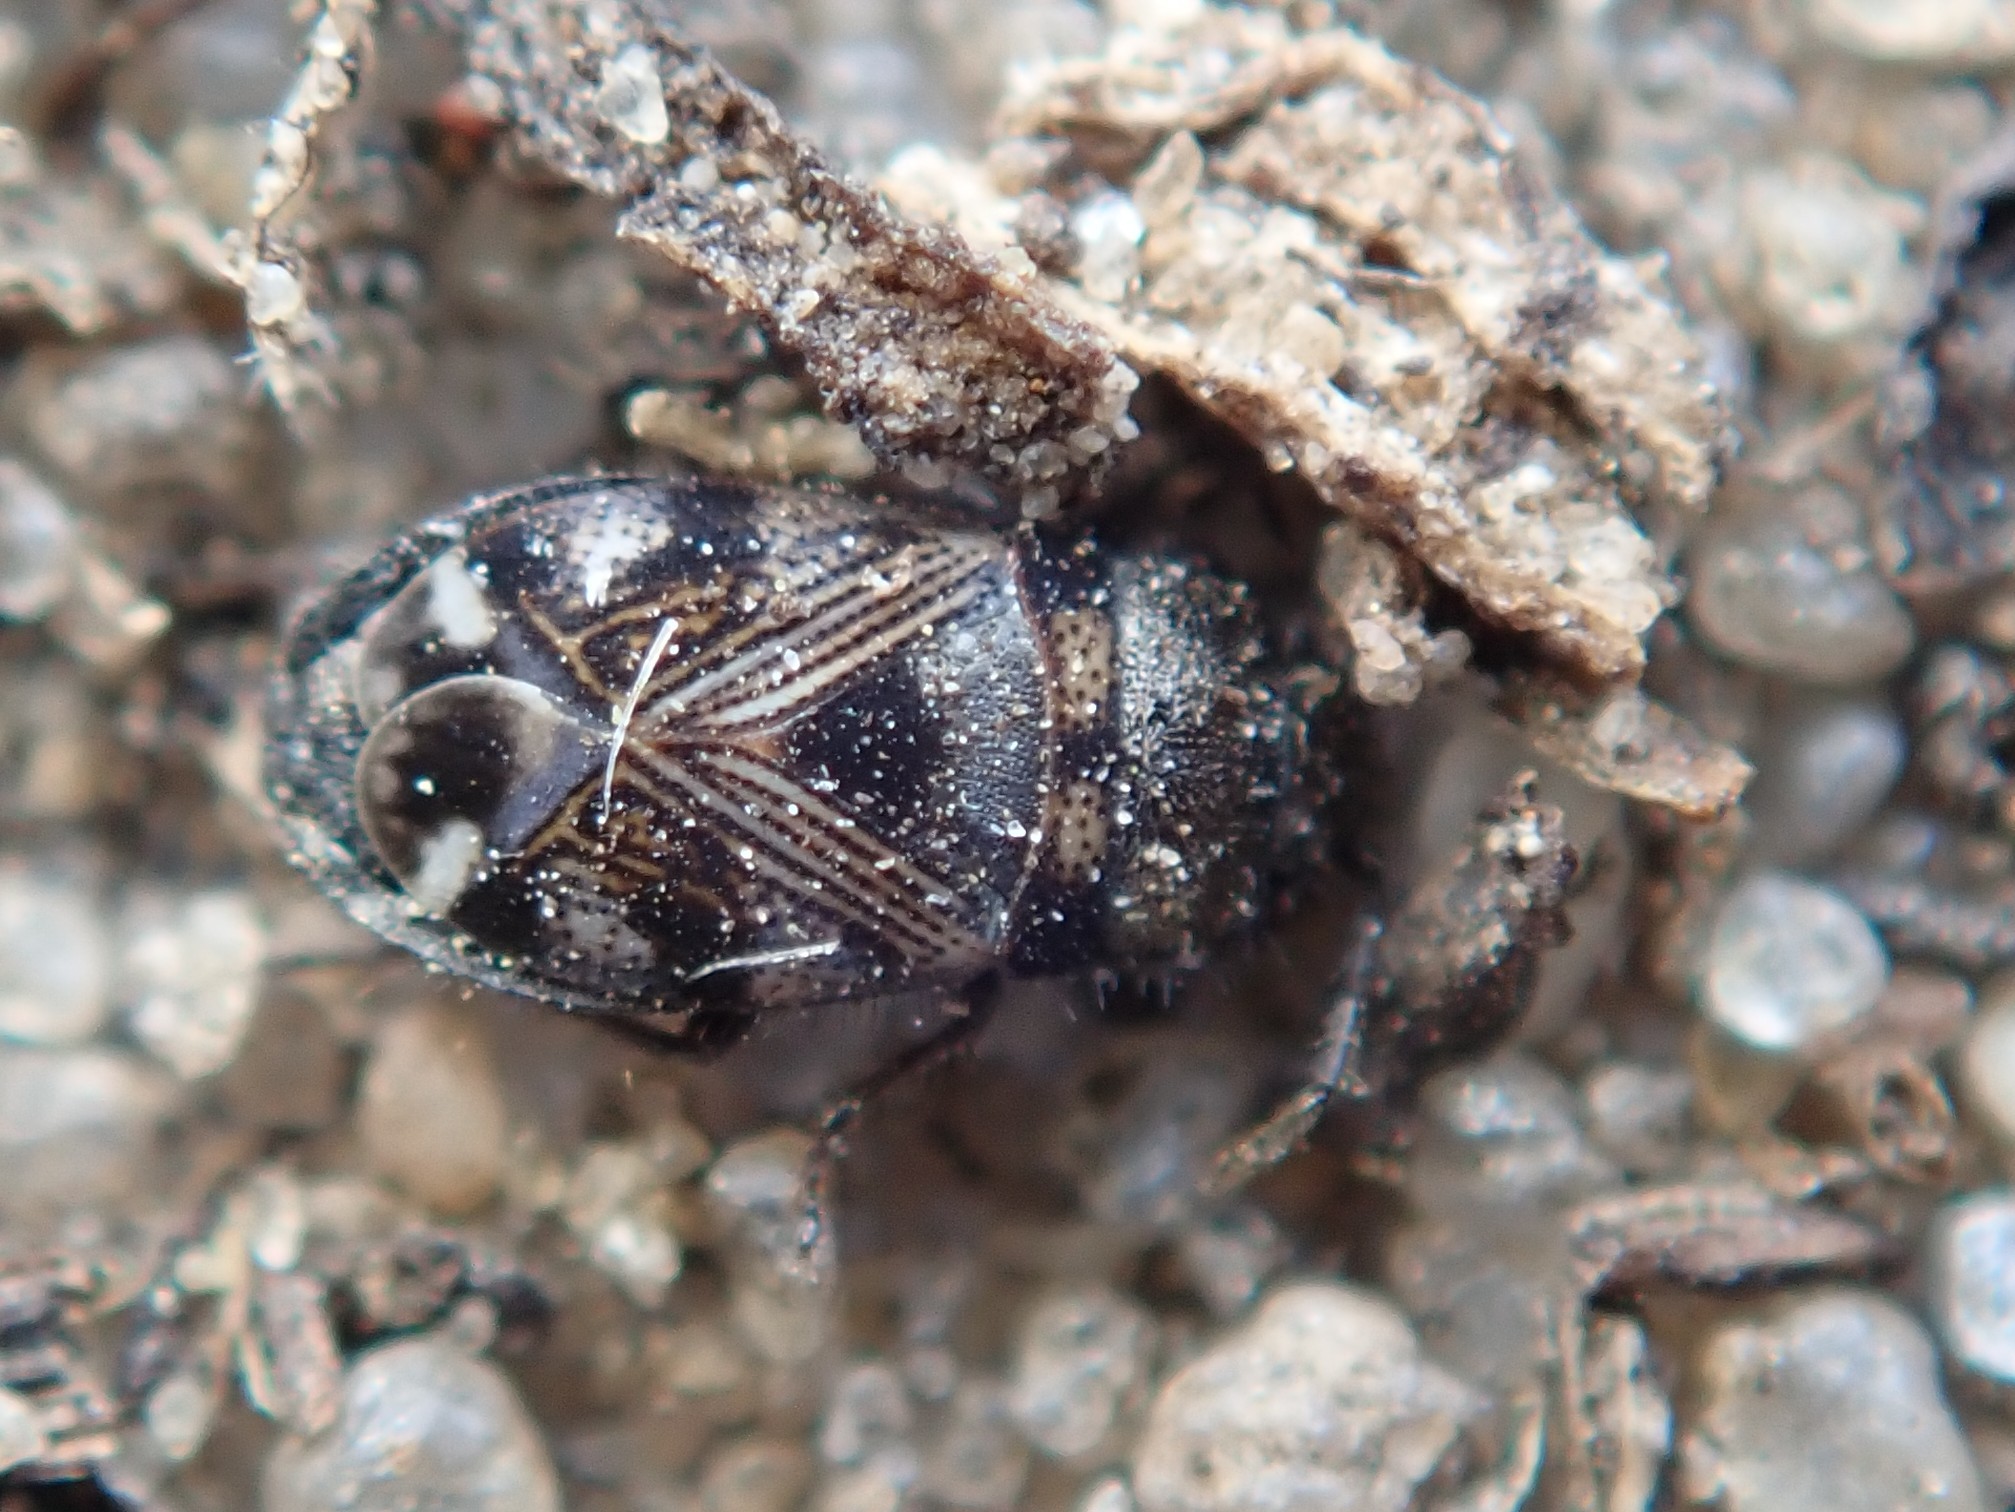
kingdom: Animalia
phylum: Arthropoda
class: Insecta
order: Hemiptera
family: Rhyparochromidae
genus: Pionosomus
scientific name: Pionosomus varius
